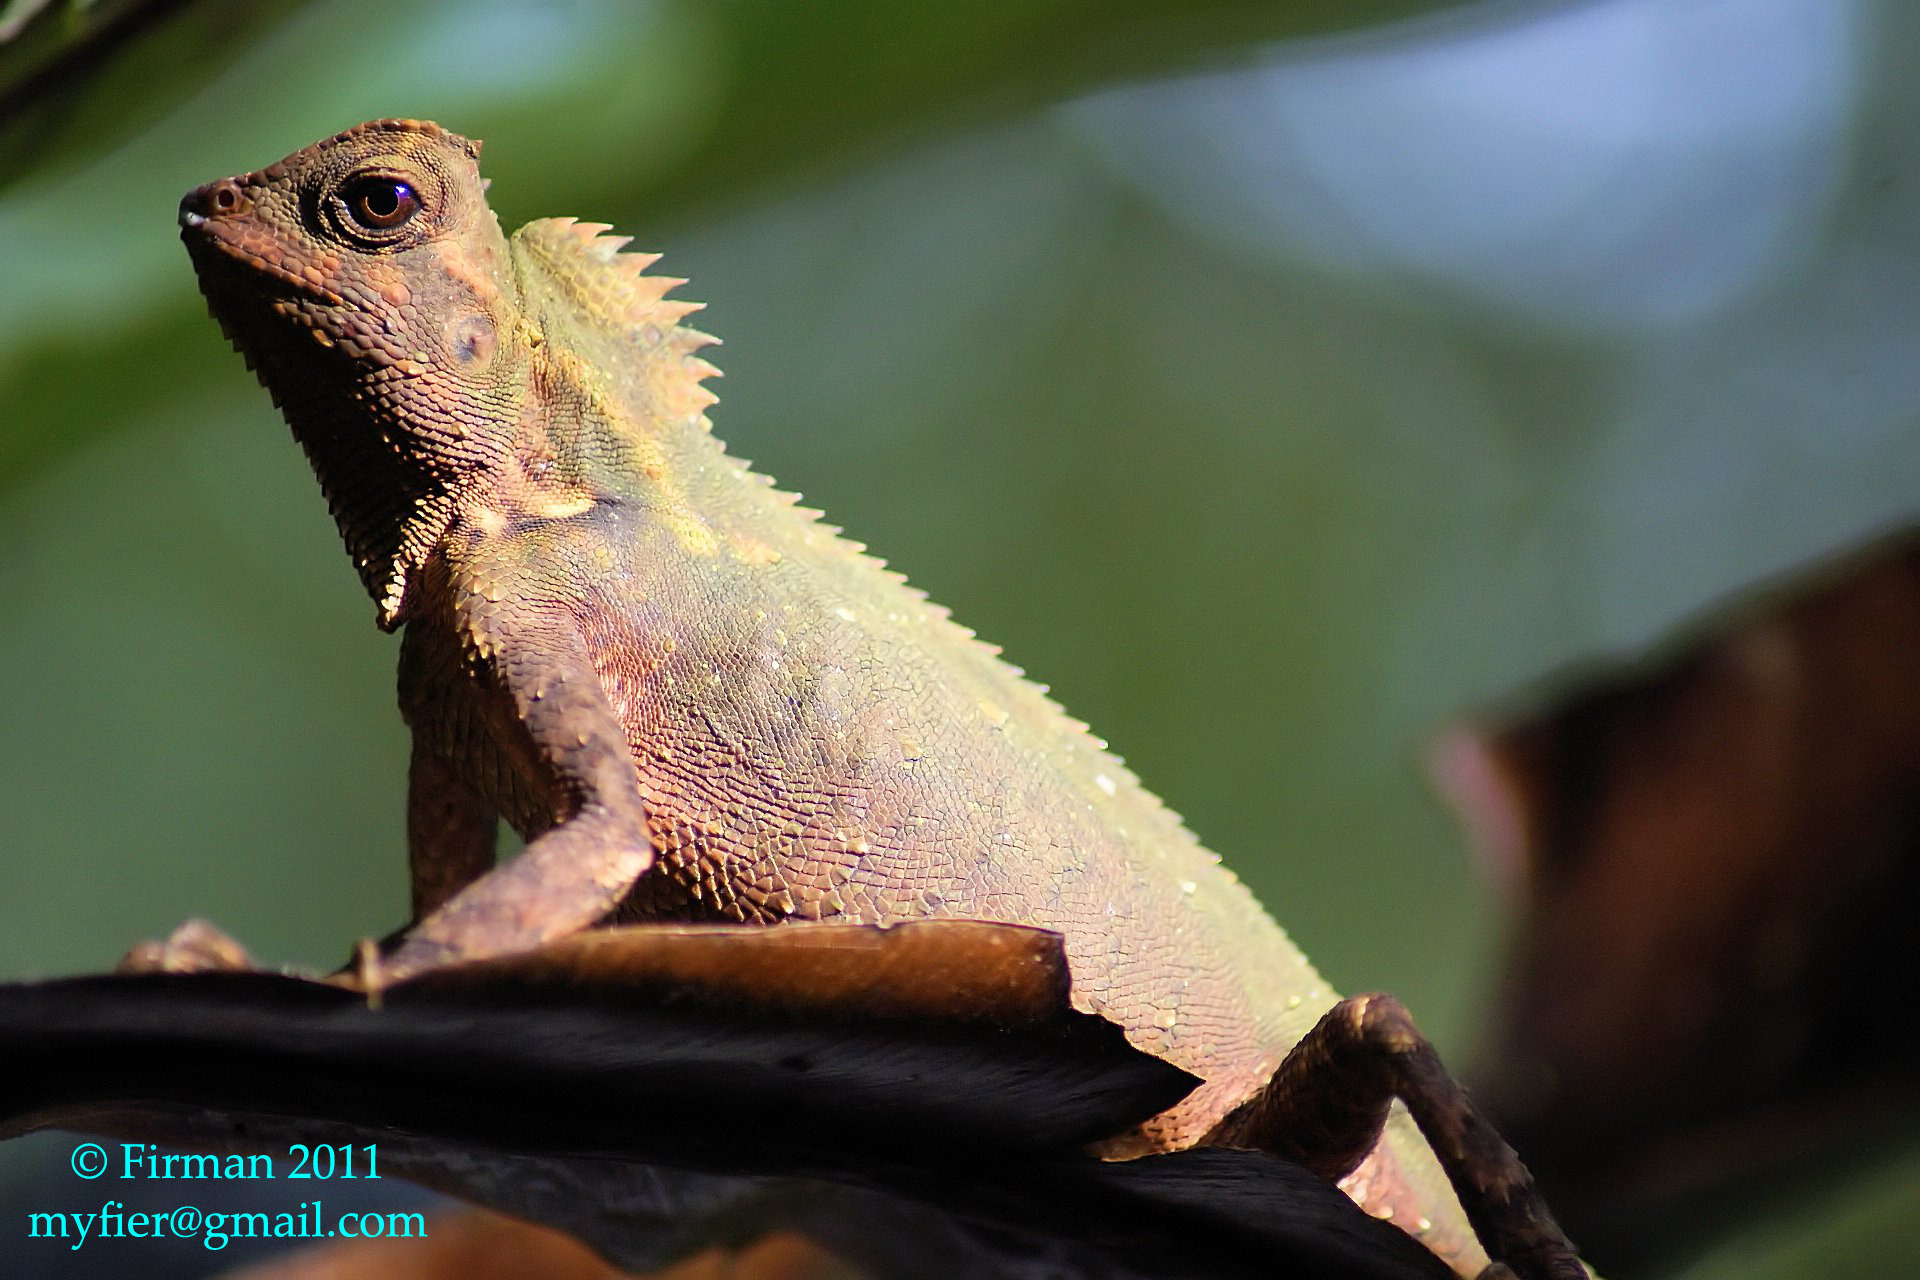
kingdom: Animalia
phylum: Chordata
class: Squamata
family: Agamidae
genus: Gonocephalus
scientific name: Gonocephalus kuhlii
